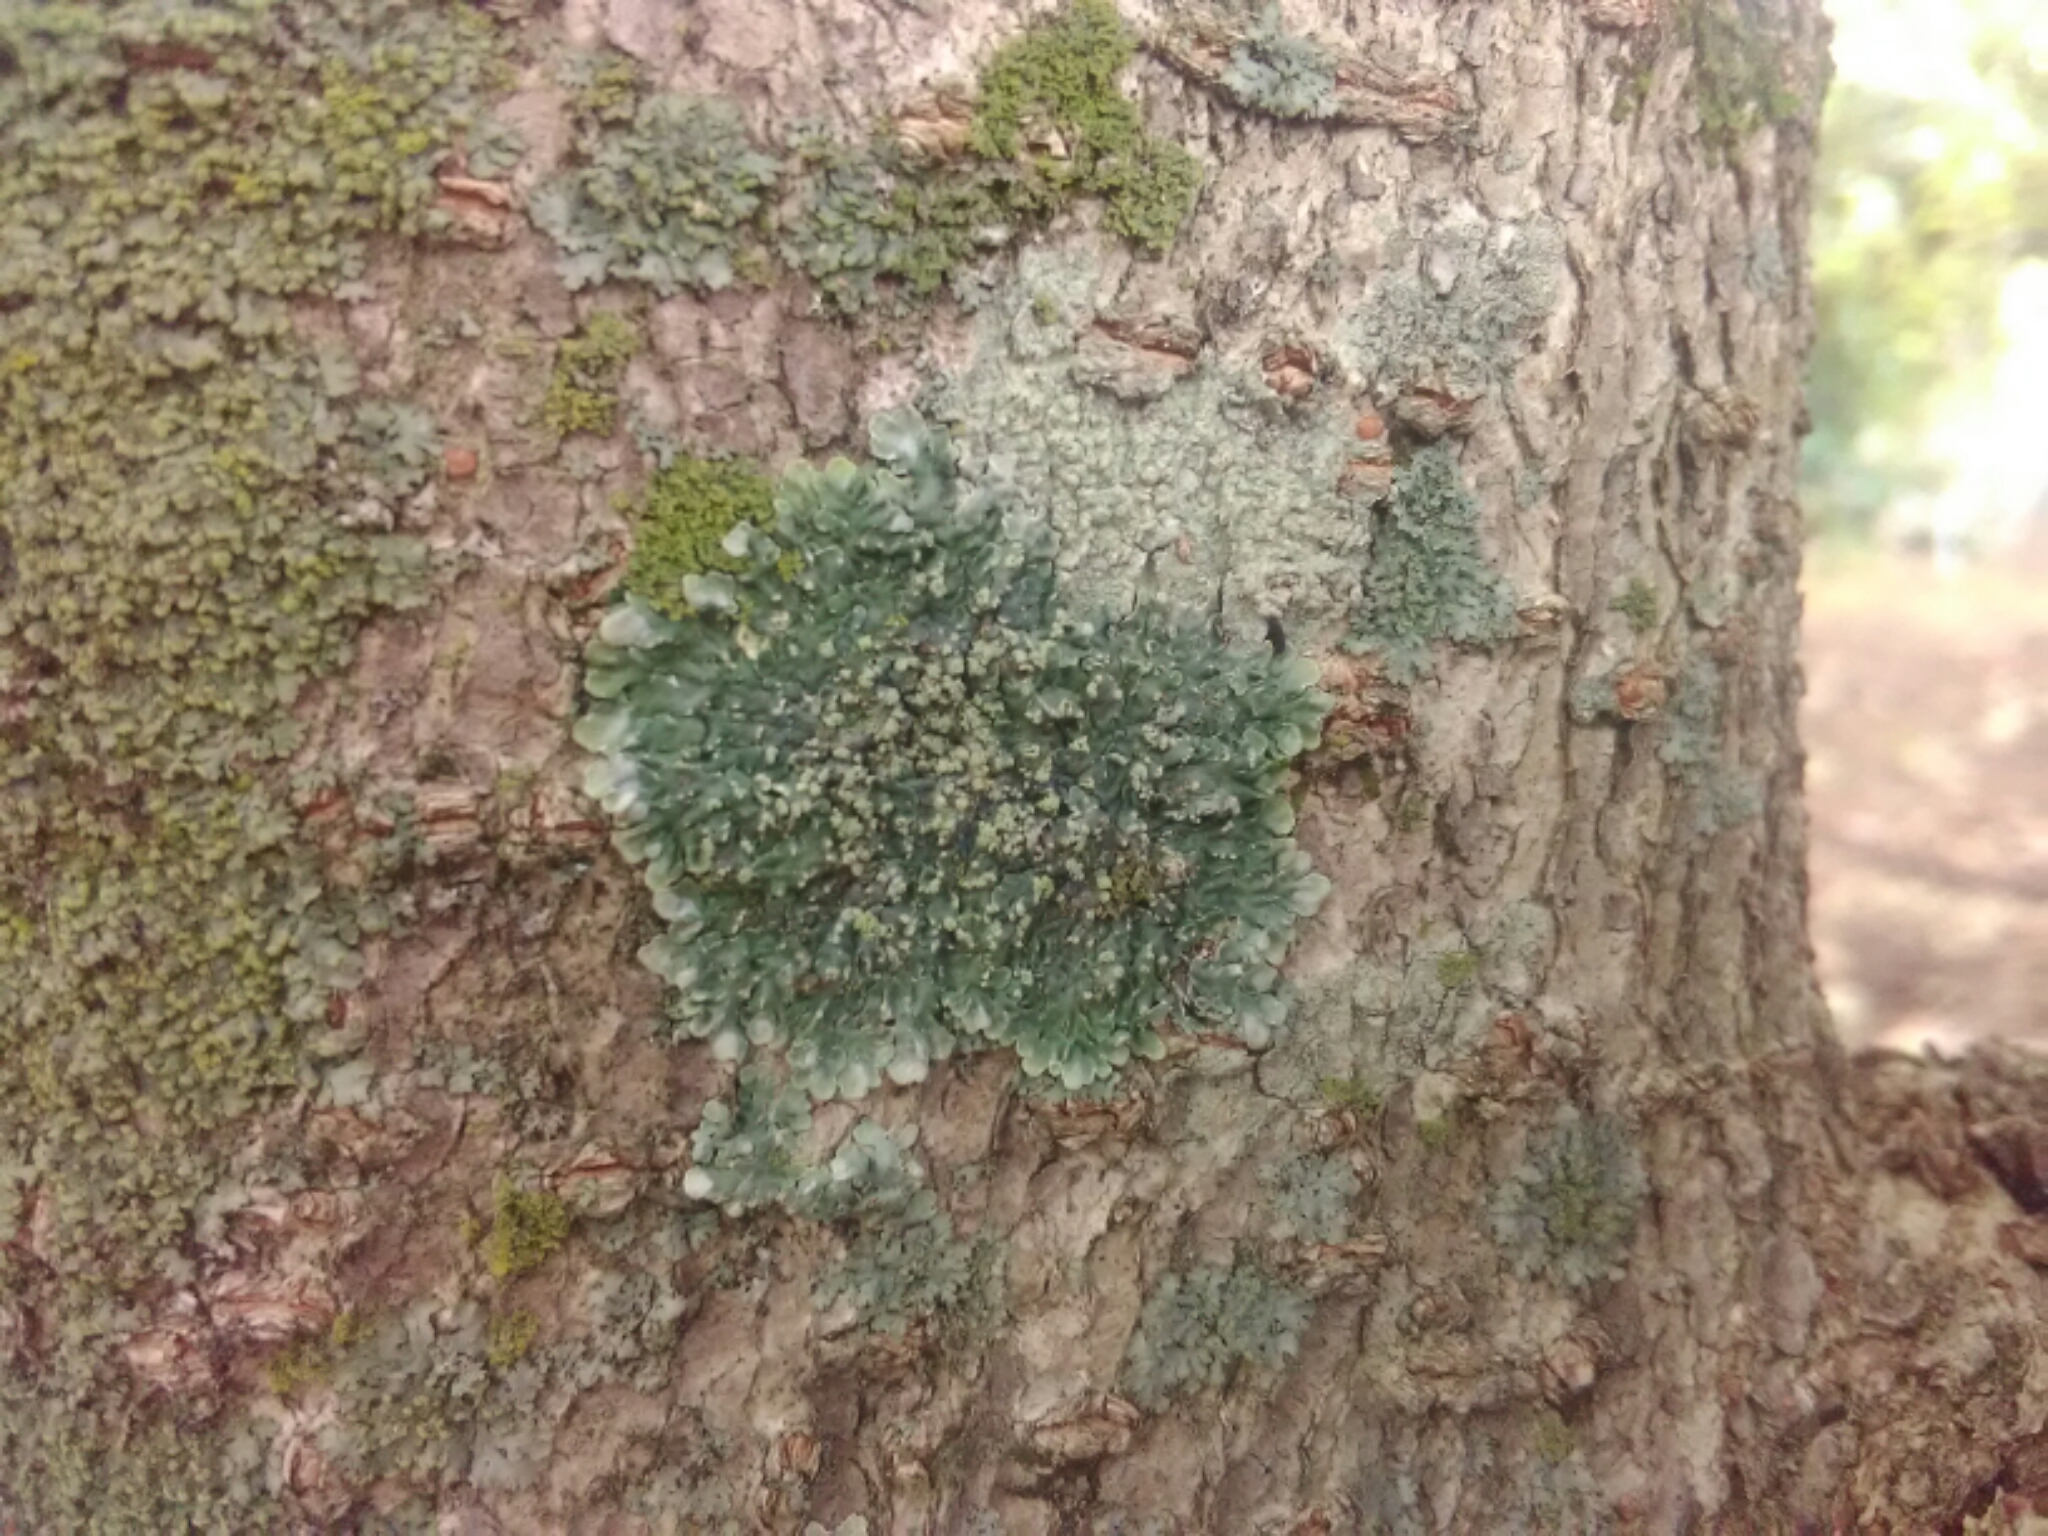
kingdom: Fungi
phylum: Ascomycota
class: Lecanoromycetes
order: Caliciales
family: Caliciaceae
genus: Pyxine
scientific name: Pyxine sorediata
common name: Mustard lichen
